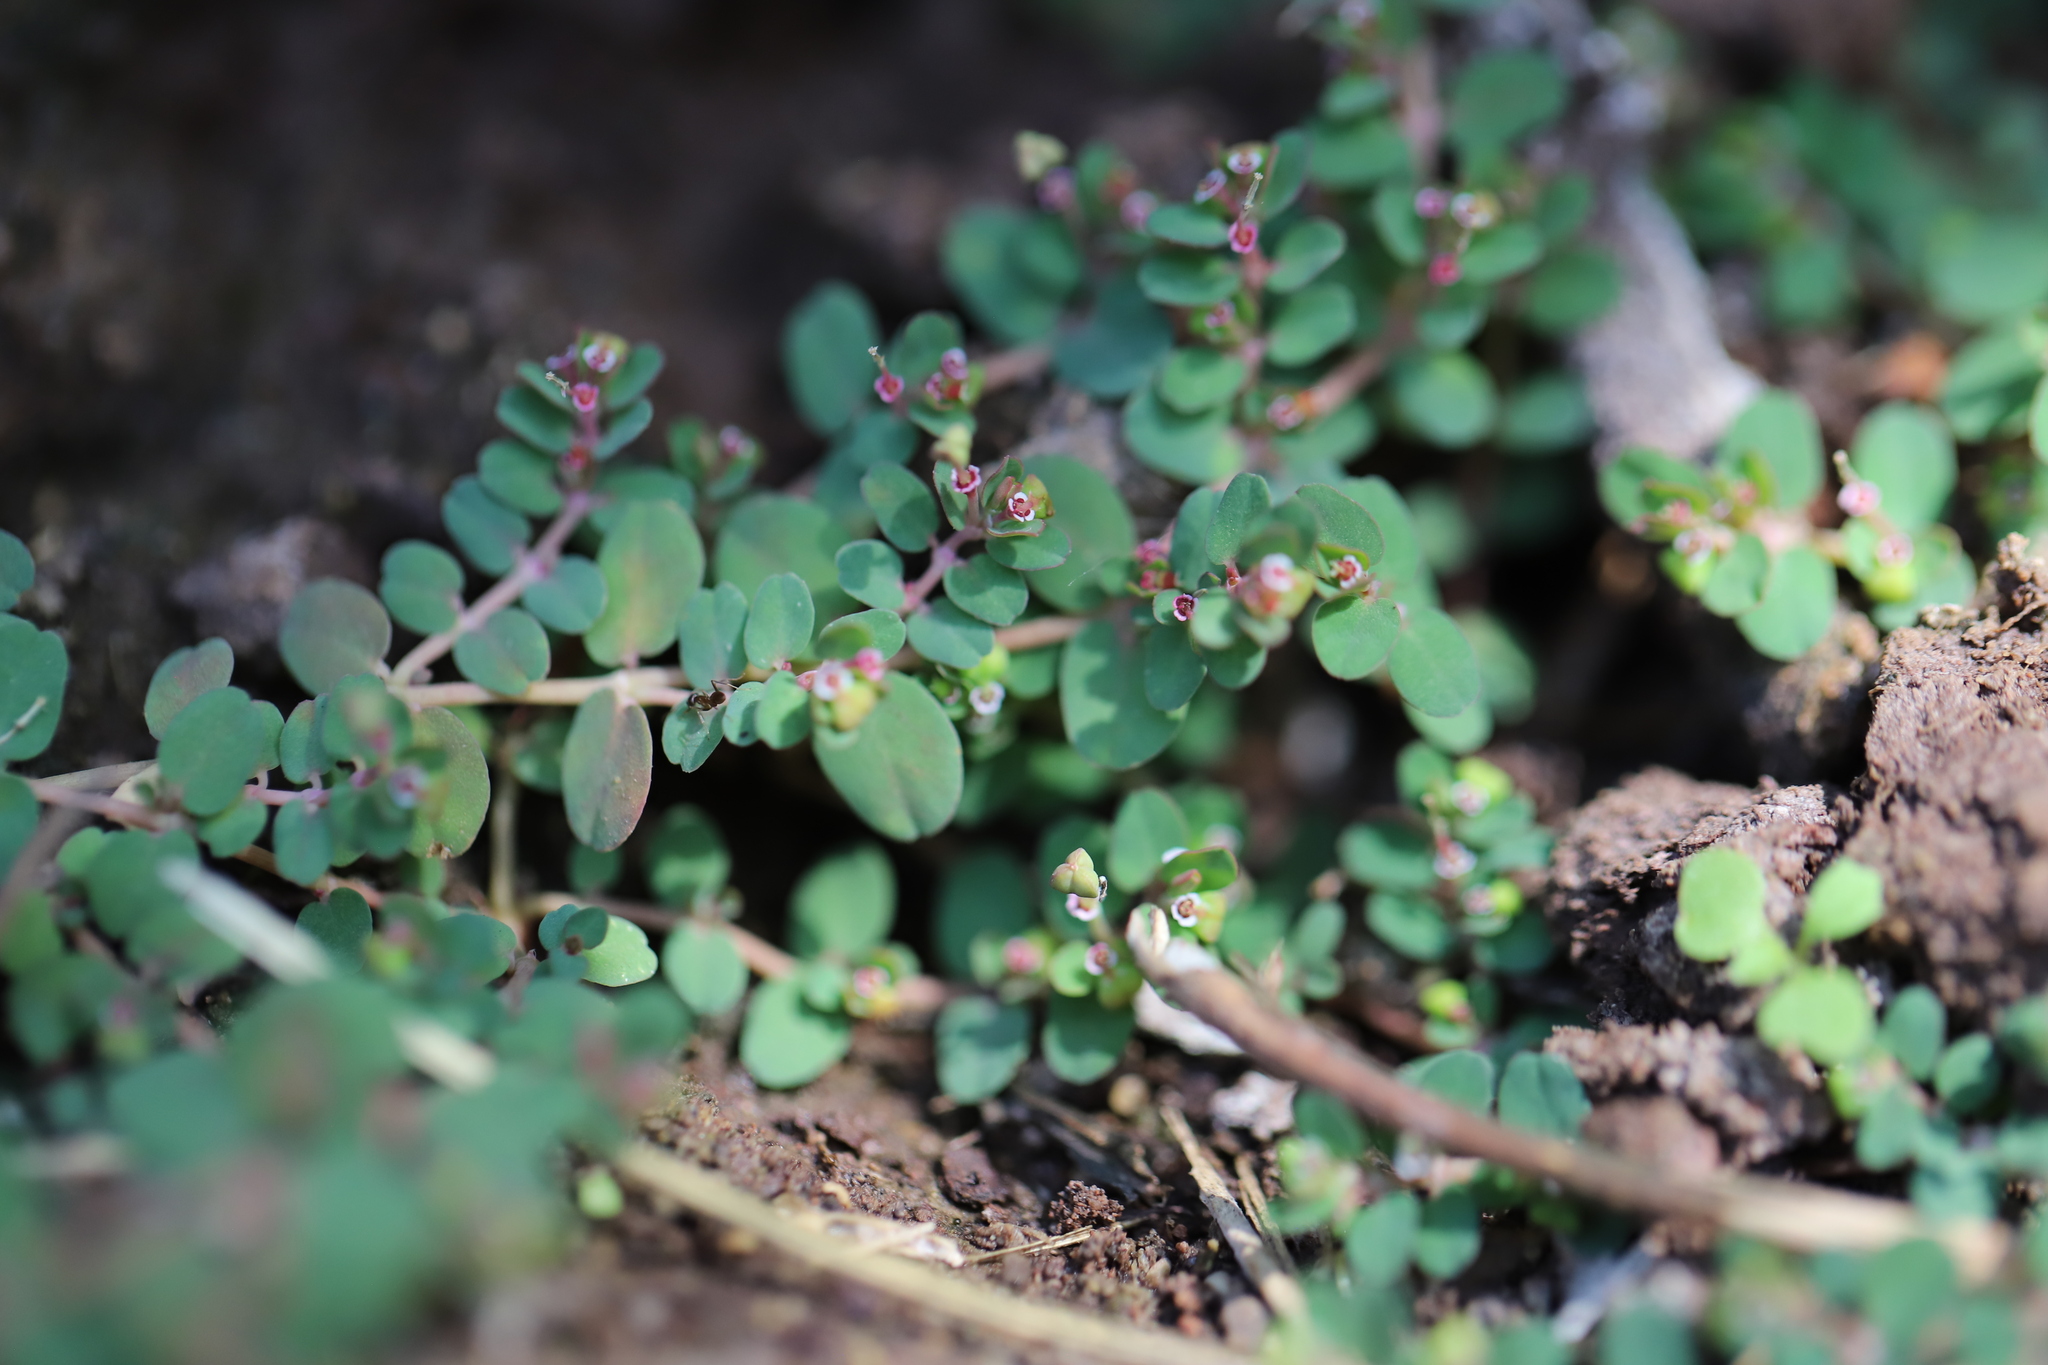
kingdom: Plantae
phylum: Tracheophyta
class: Magnoliopsida
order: Malpighiales
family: Euphorbiaceae
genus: Euphorbia
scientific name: Euphorbia serpens
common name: Matted sandmat
